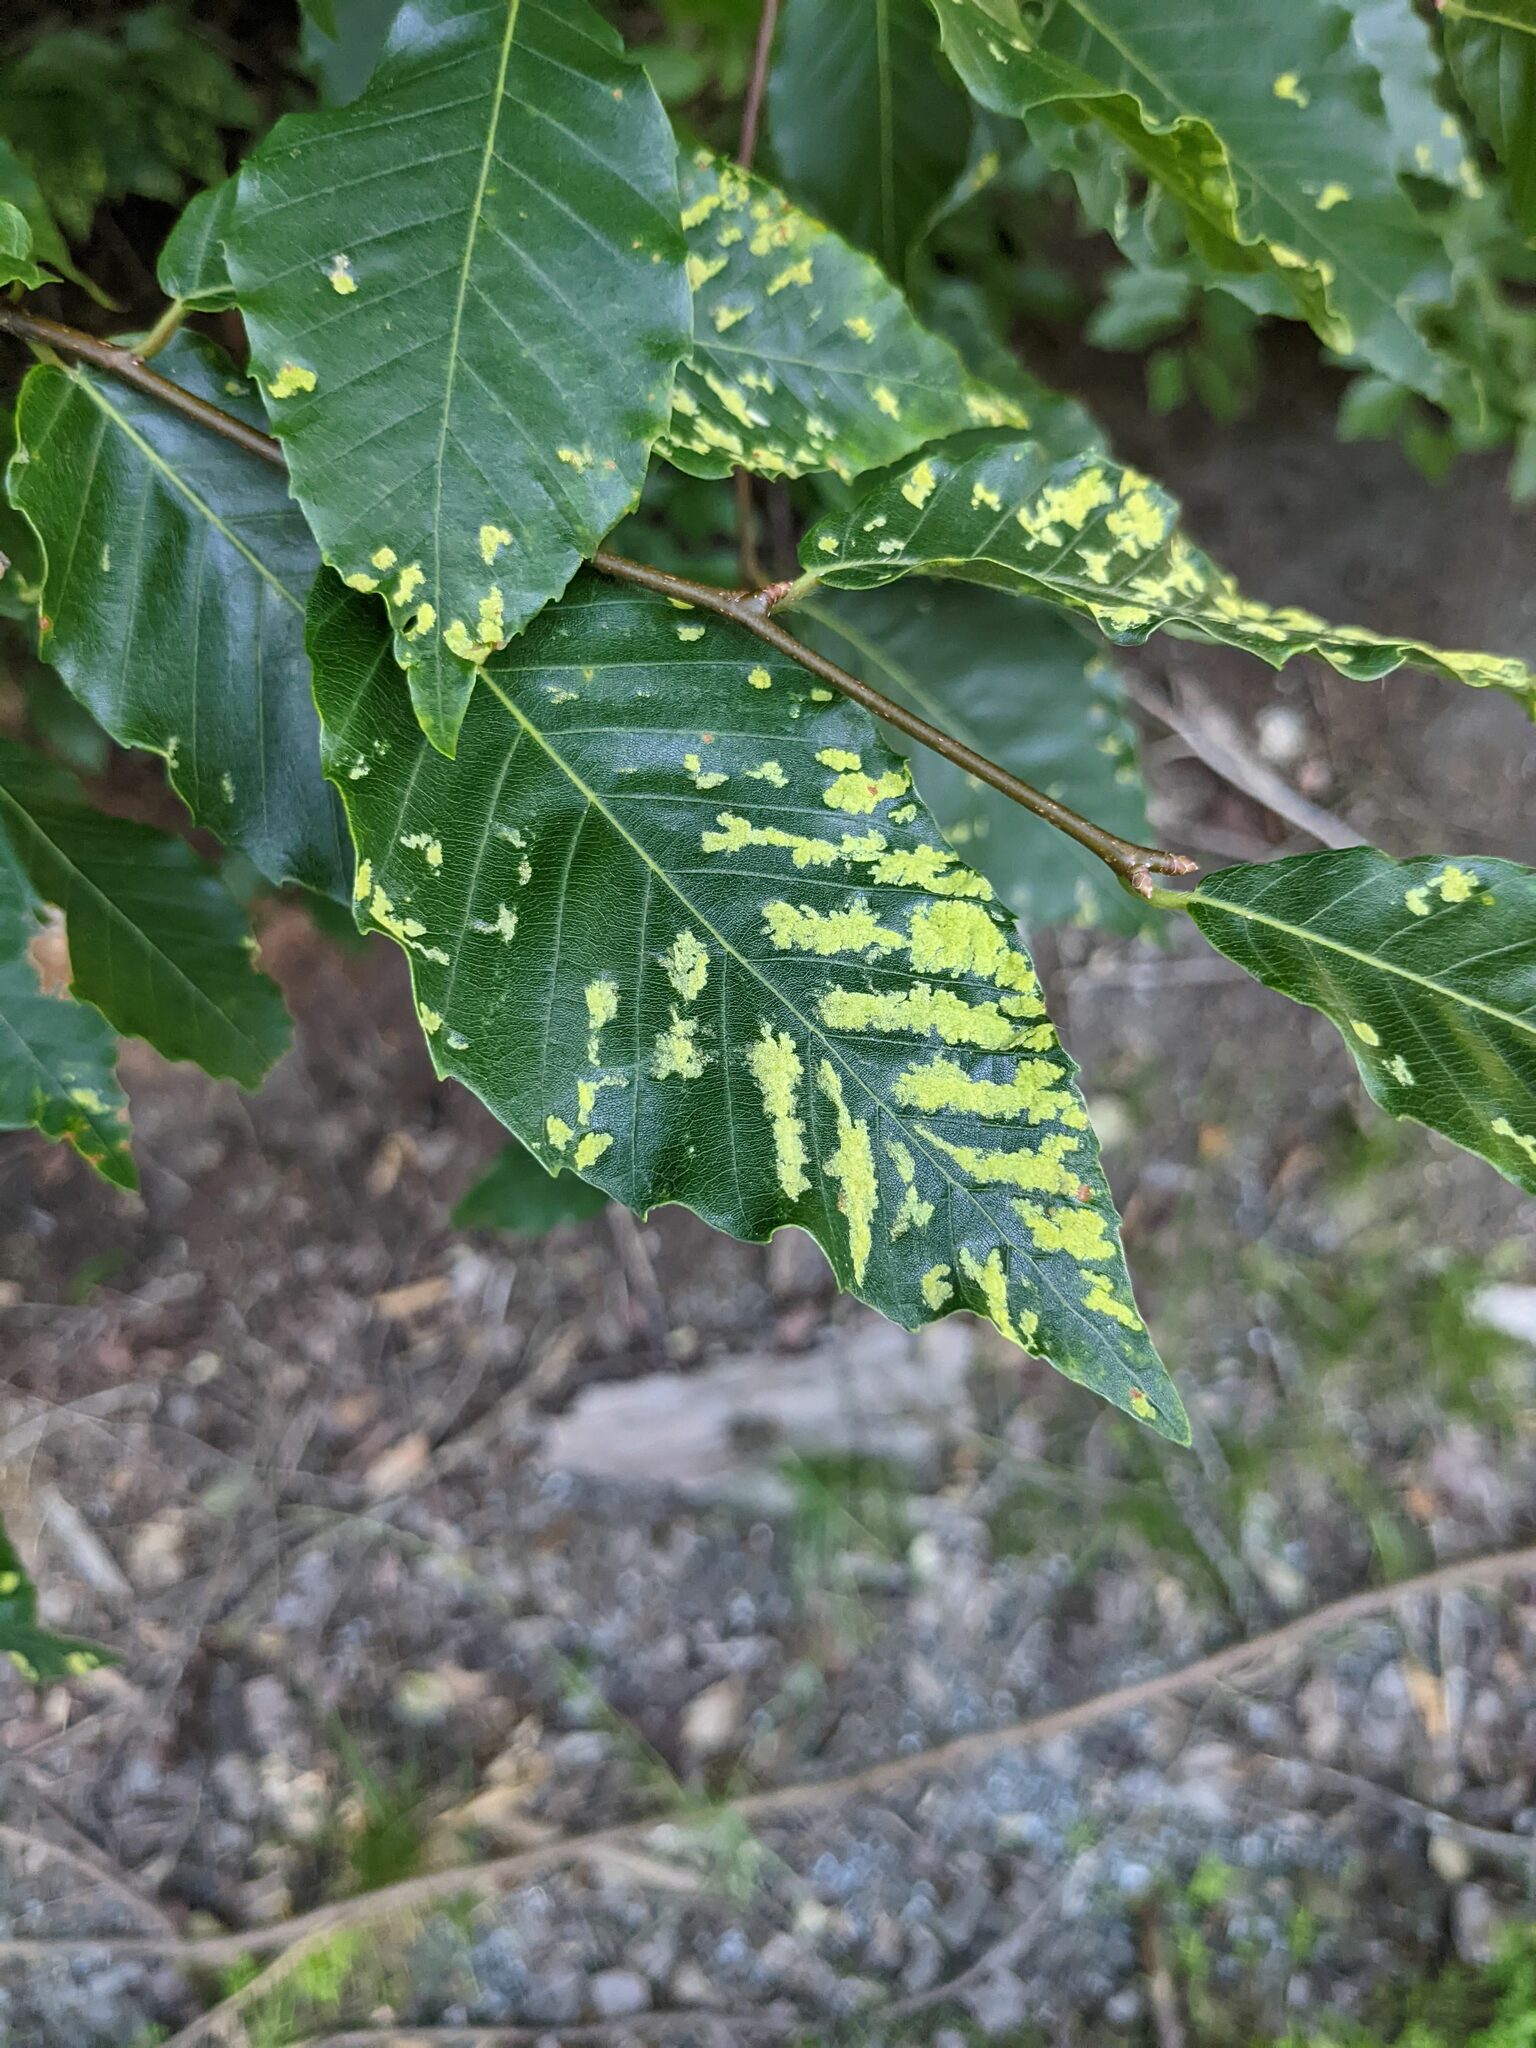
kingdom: Animalia
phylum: Arthropoda
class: Arachnida
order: Trombidiformes
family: Eriophyidae
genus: Acalitus
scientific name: Acalitus
